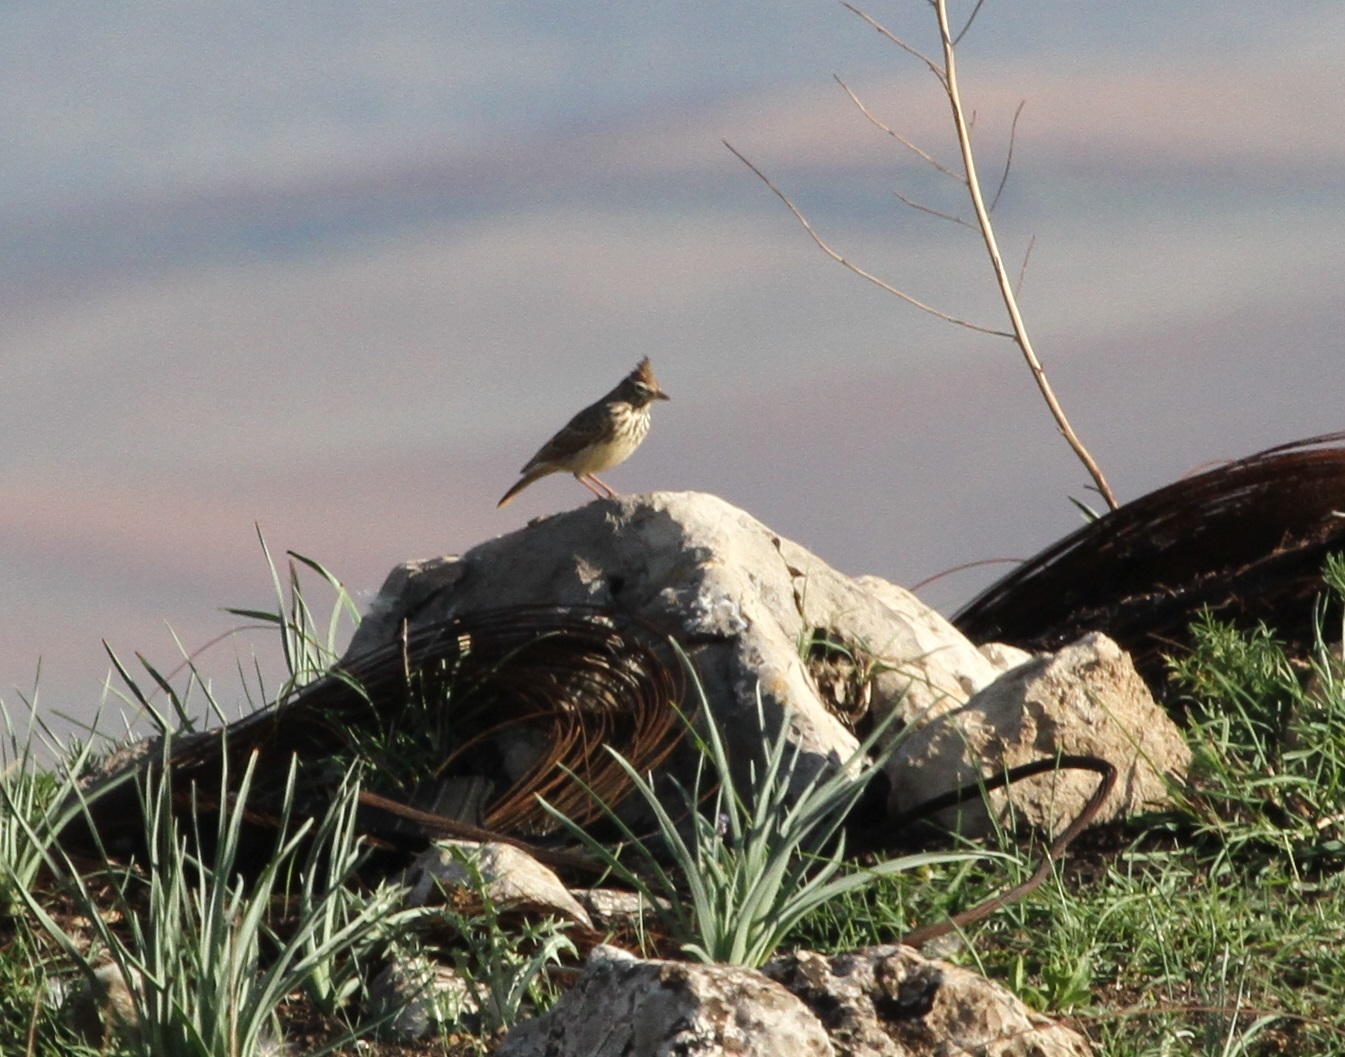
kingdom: Animalia
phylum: Chordata
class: Aves
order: Passeriformes
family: Alaudidae
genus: Galerida
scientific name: Galerida theklae
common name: Thekla lark
